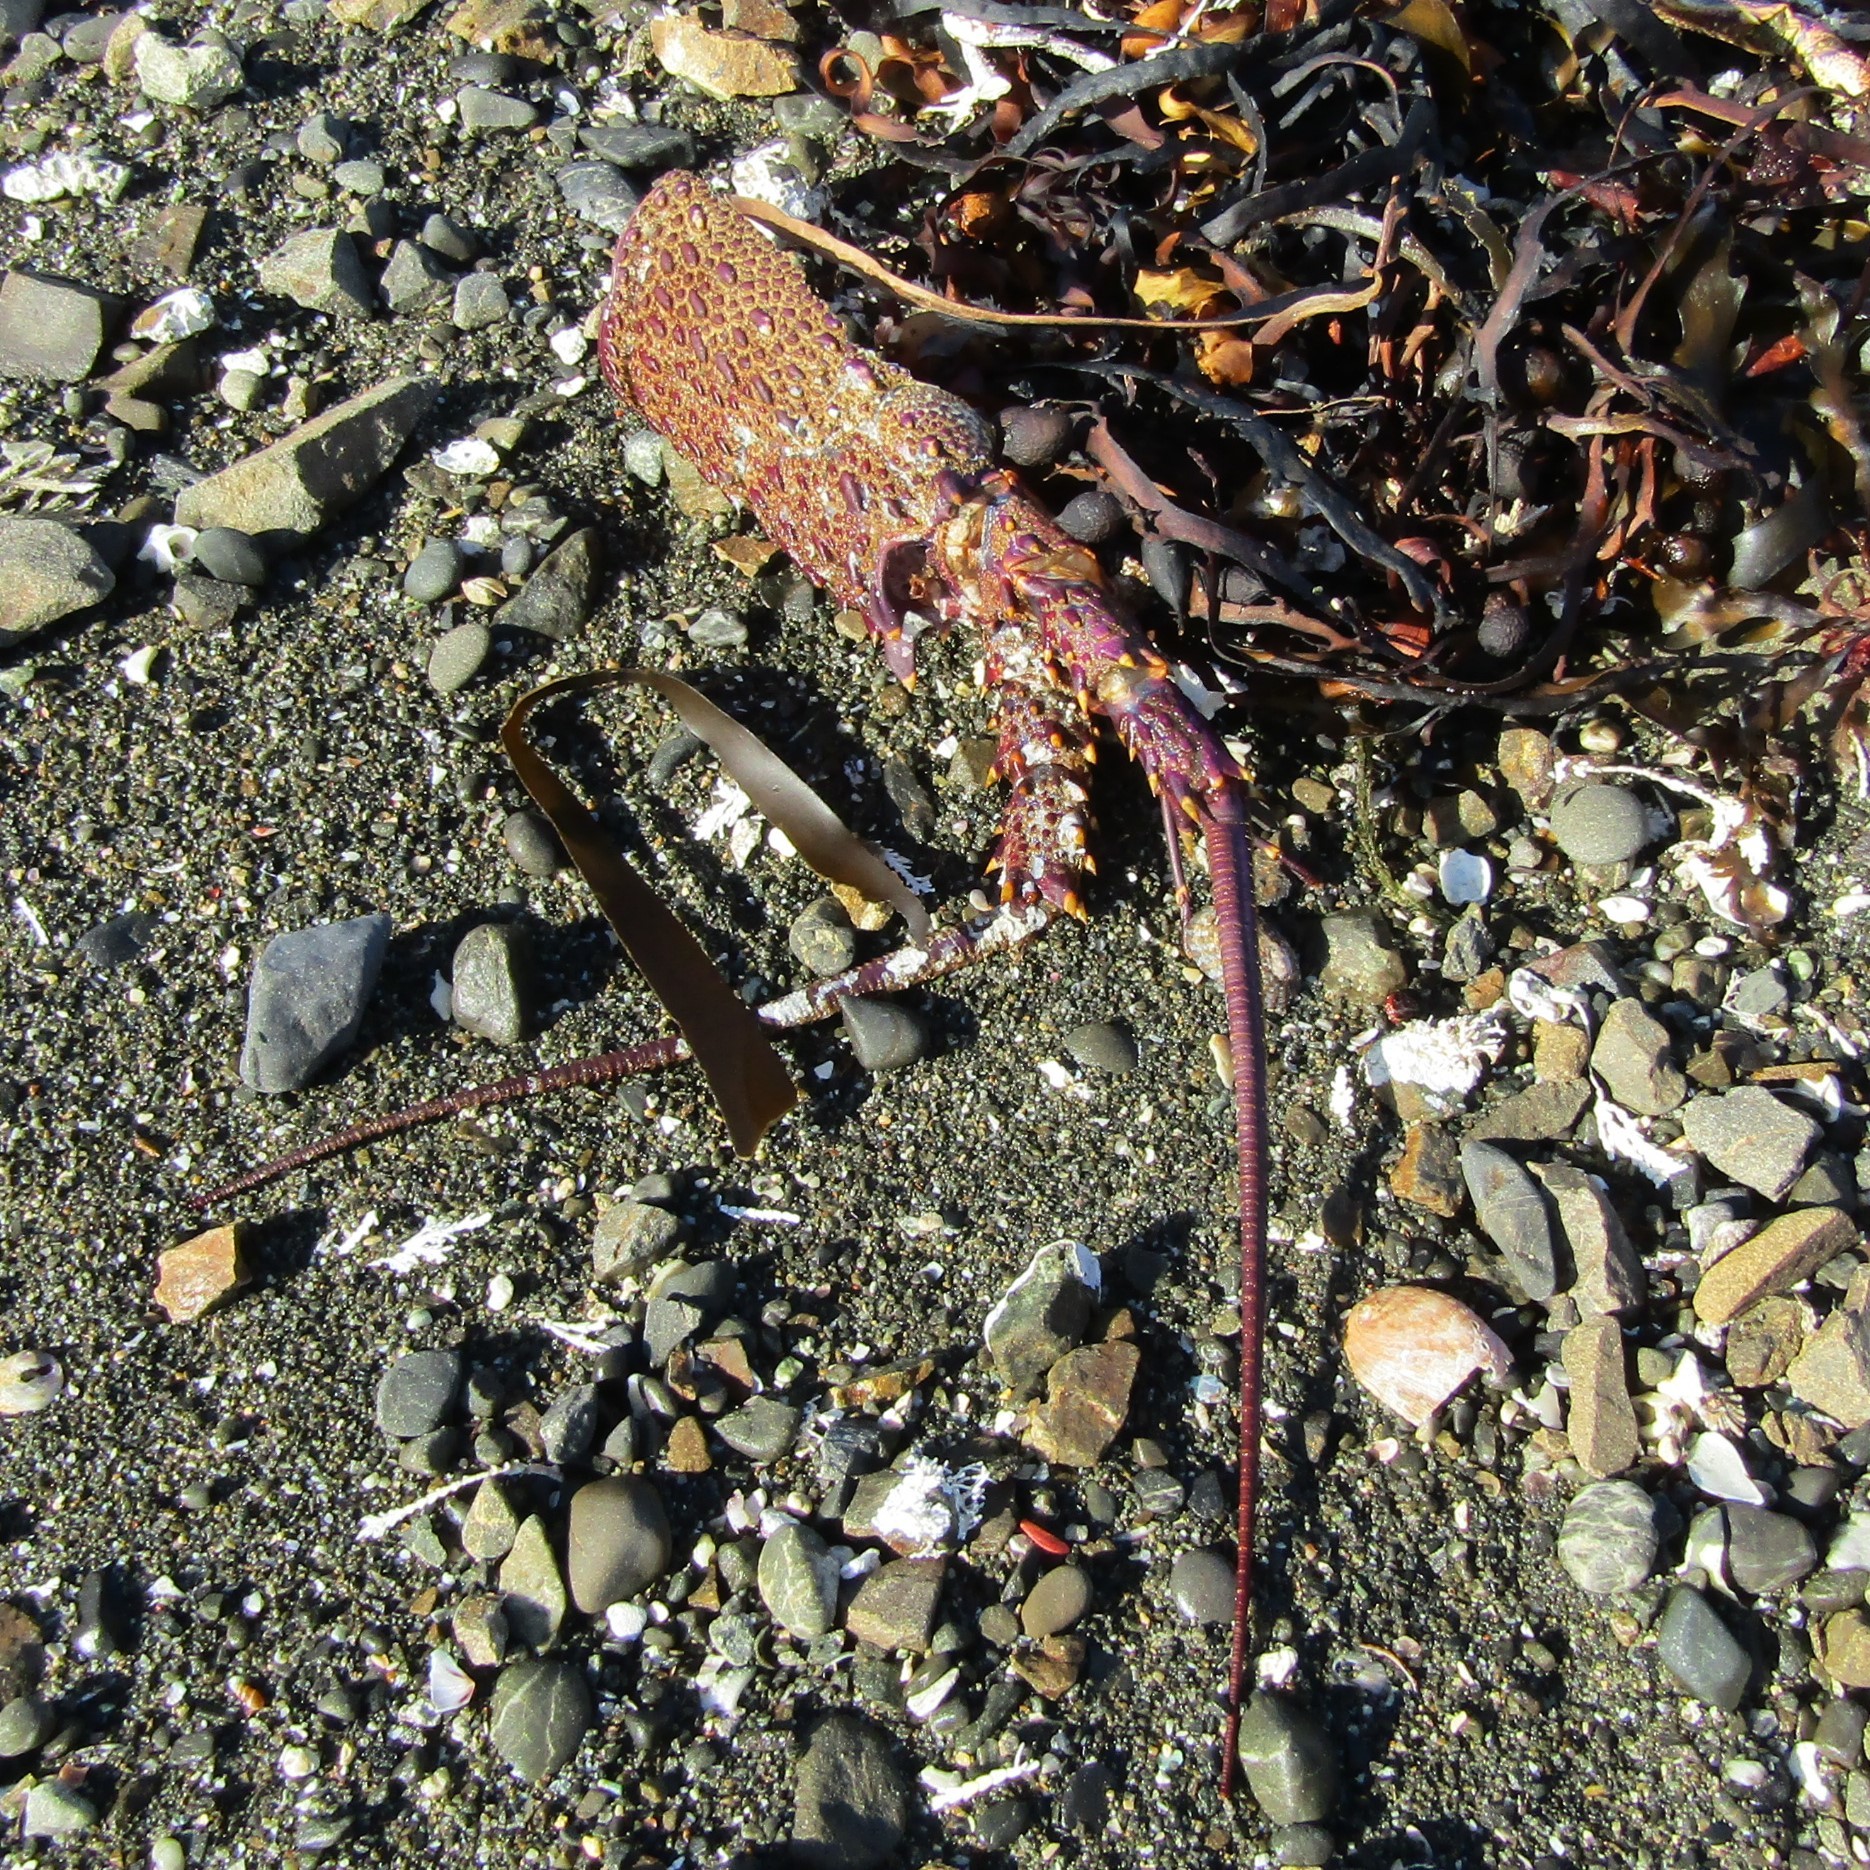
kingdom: Animalia
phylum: Arthropoda
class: Malacostraca
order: Decapoda
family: Palinuridae
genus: Jasus
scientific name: Jasus edwardsii
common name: Red rock lobster
